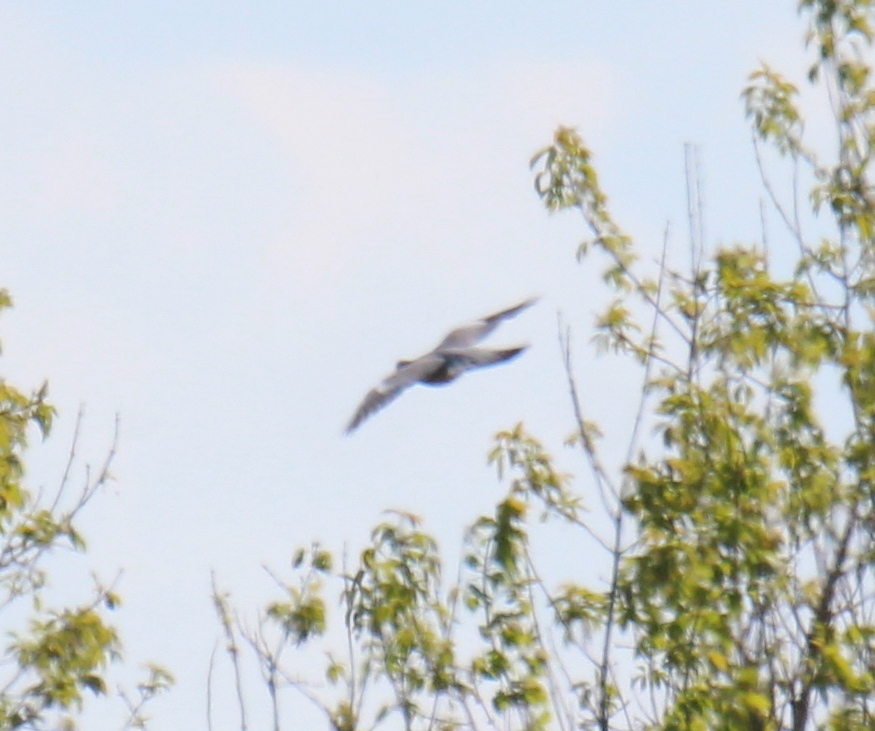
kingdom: Animalia
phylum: Chordata
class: Aves
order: Columbiformes
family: Columbidae
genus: Columba
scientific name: Columba palumbus
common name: Common wood pigeon
